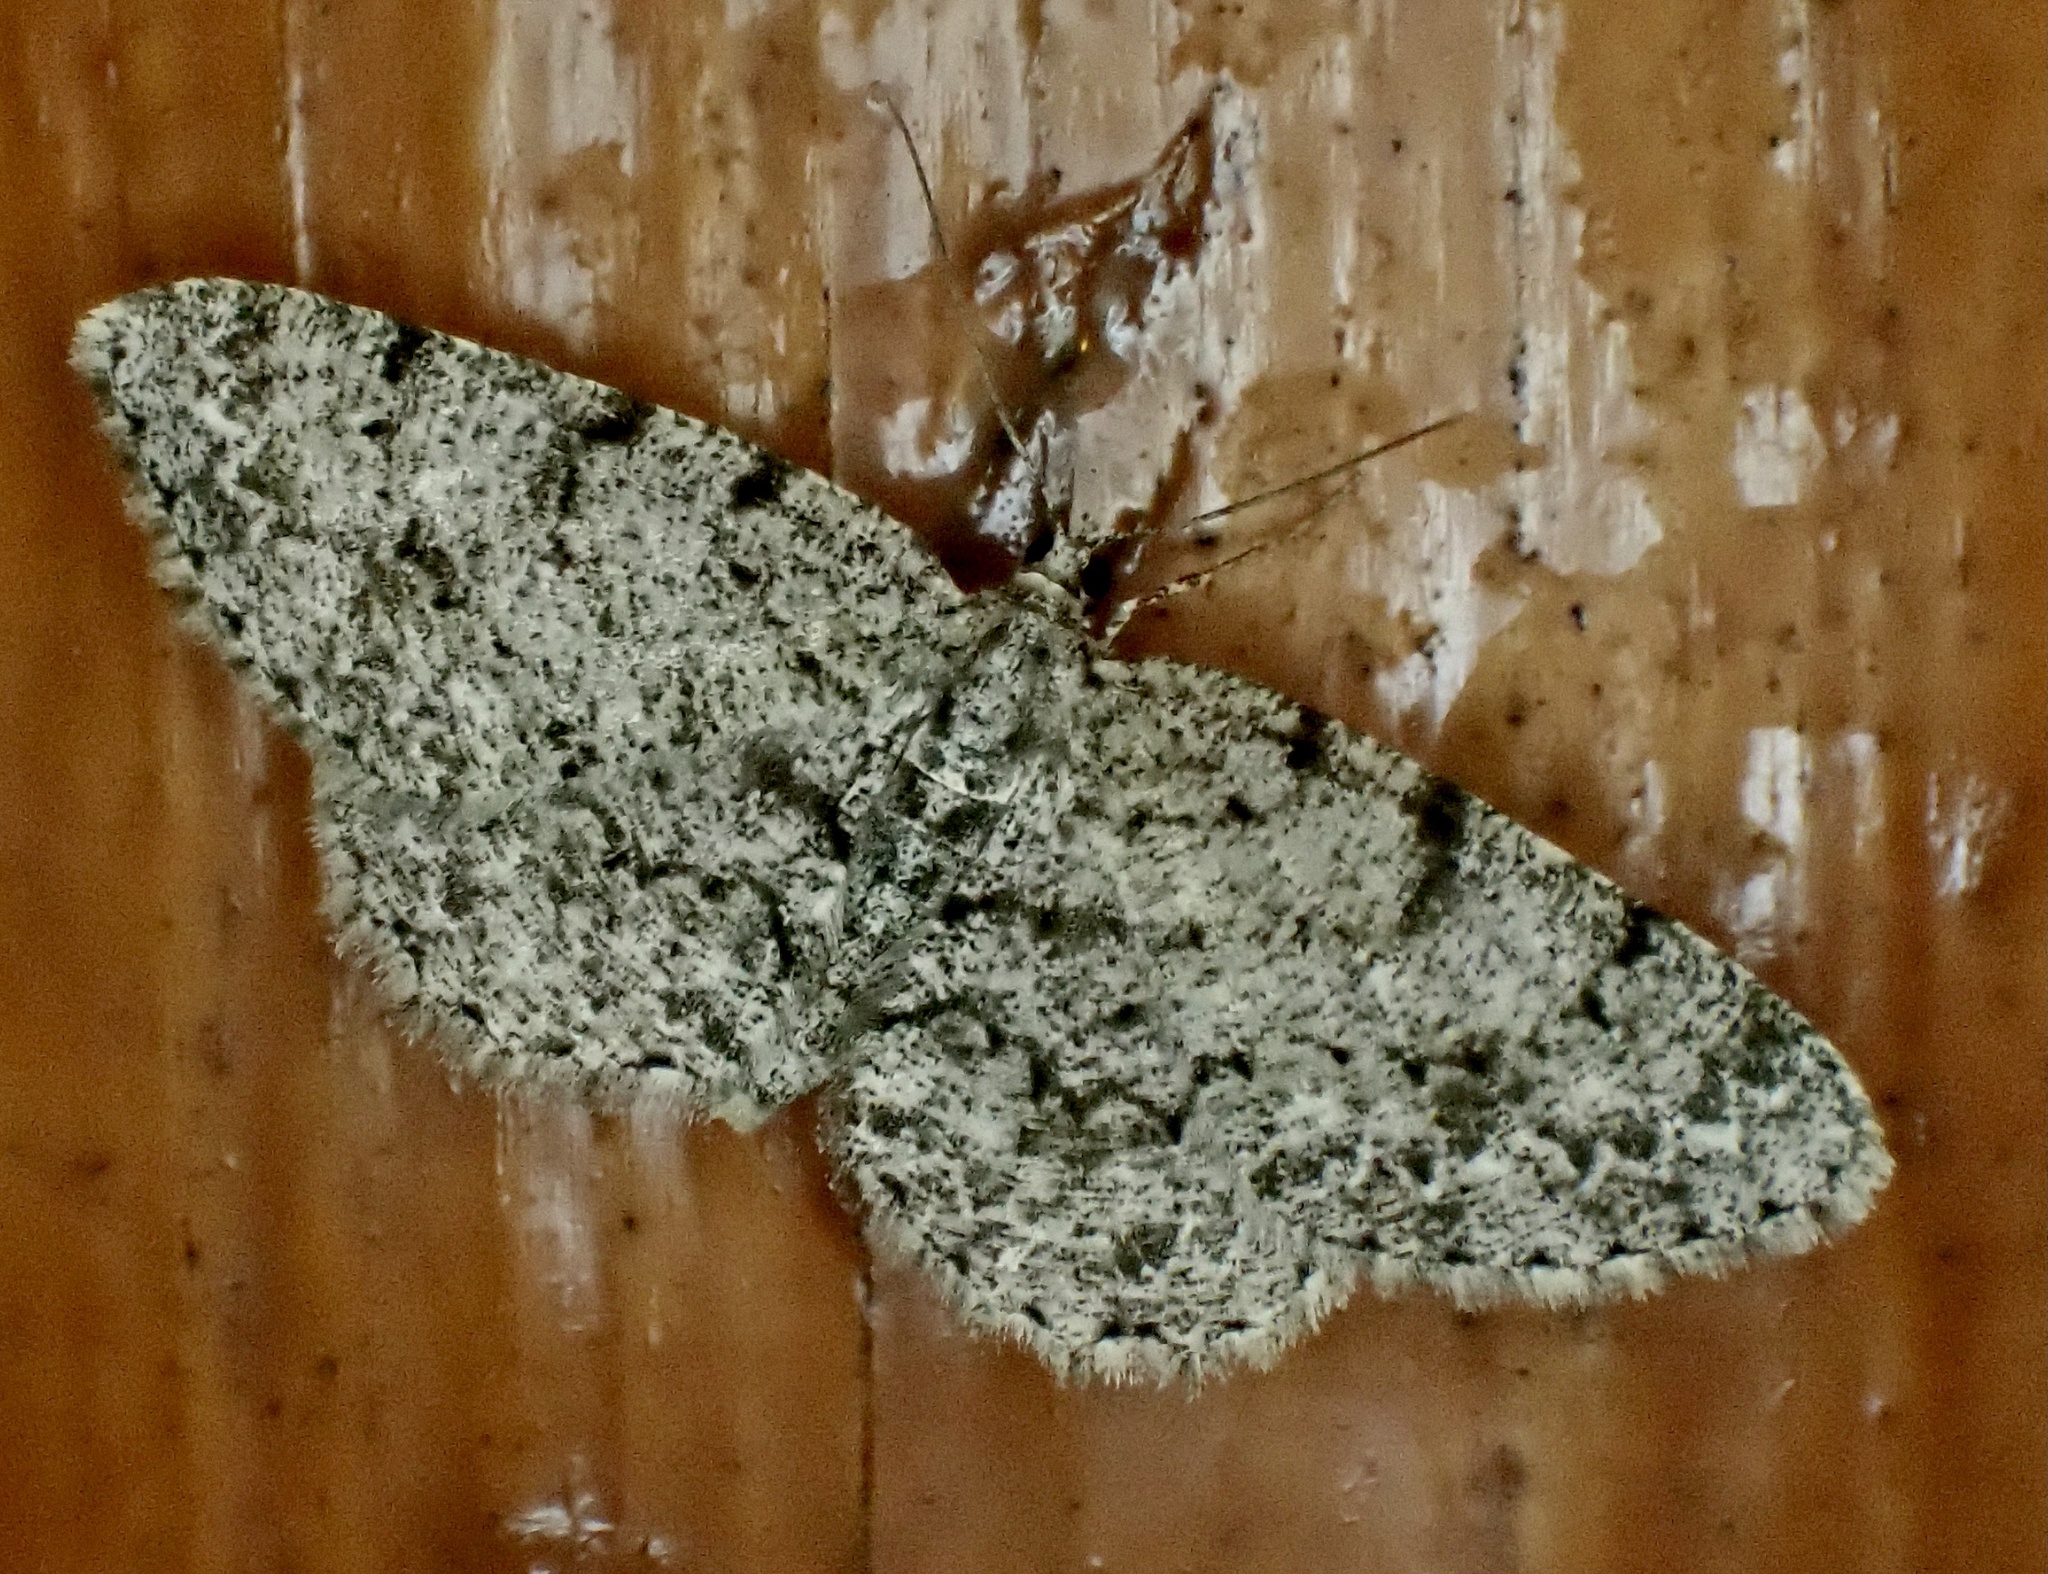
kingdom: Animalia
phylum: Arthropoda
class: Insecta
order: Lepidoptera
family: Geometridae
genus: Protoboarmia
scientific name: Protoboarmia porcelaria
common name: Porcelain gray
